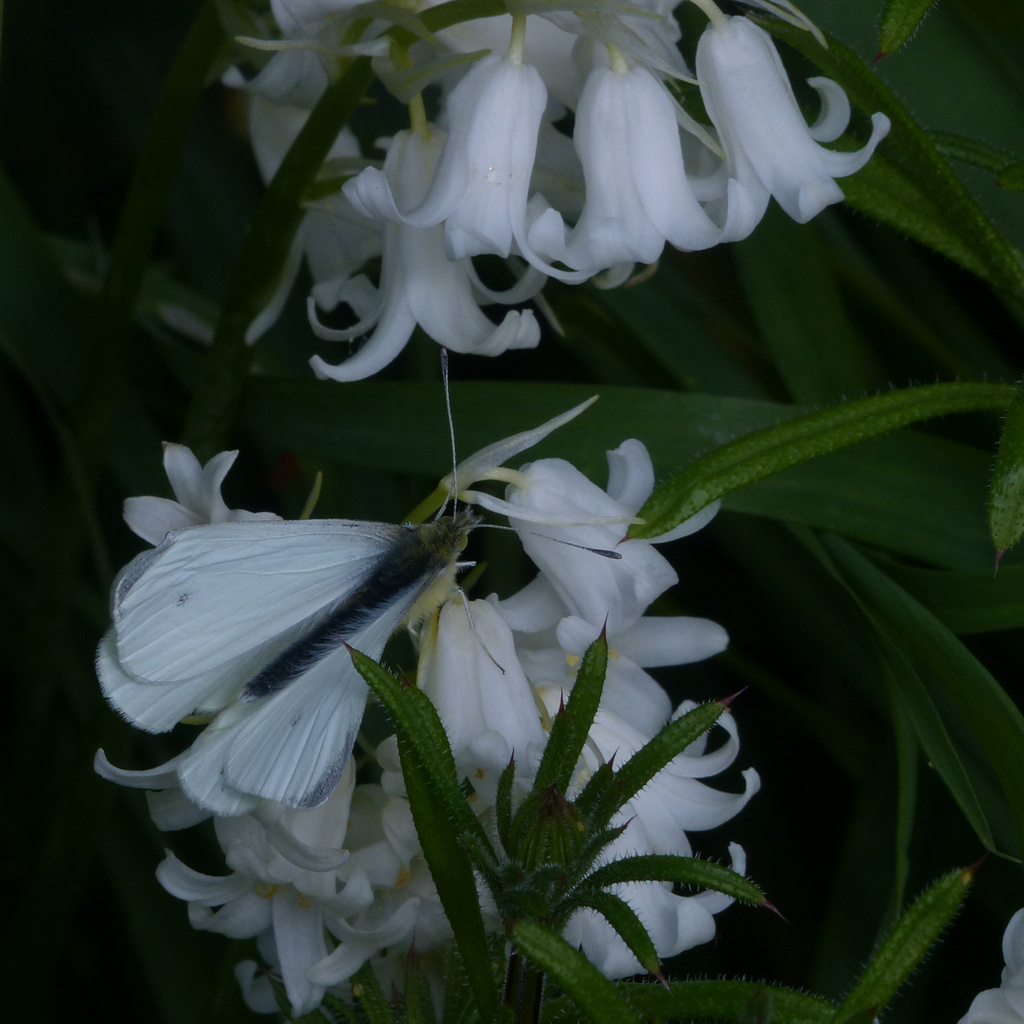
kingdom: Animalia
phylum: Arthropoda
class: Insecta
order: Lepidoptera
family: Pieridae
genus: Pieris
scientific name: Pieris rapae
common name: Small white
